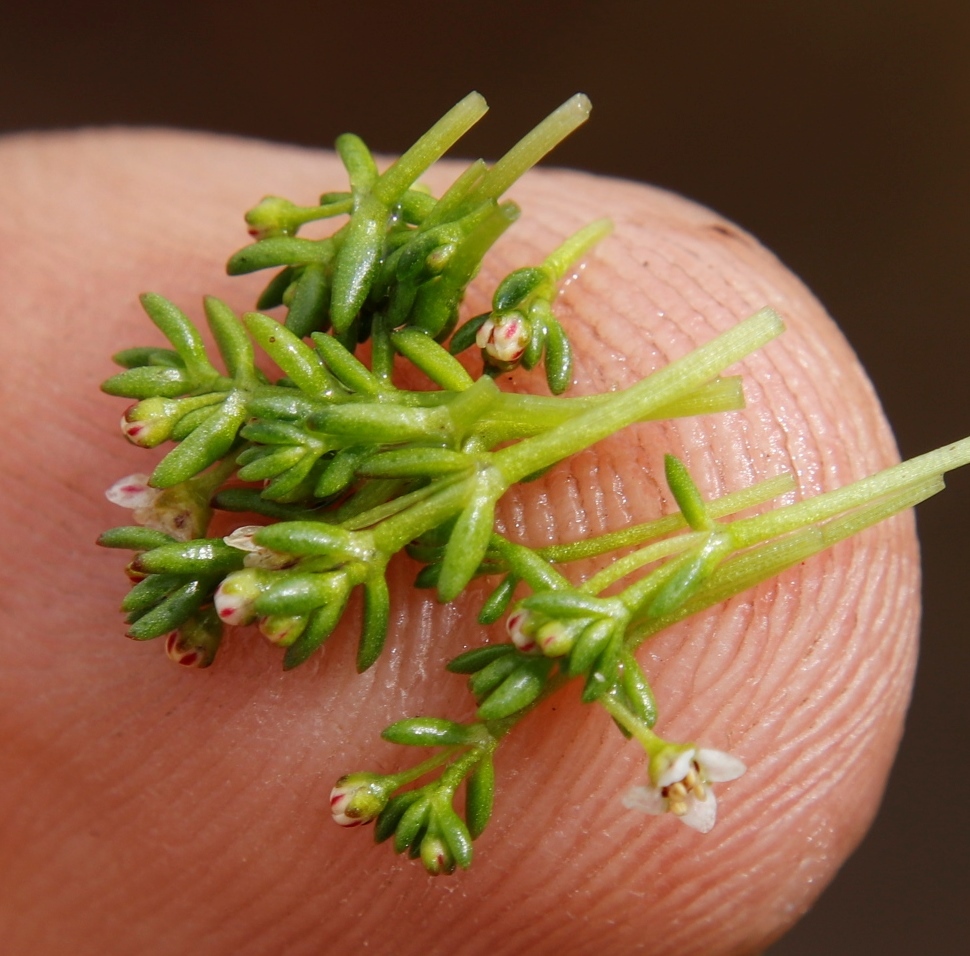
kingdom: Plantae
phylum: Tracheophyta
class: Magnoliopsida
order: Saxifragales
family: Crassulaceae
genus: Crassula
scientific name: Crassula natans
